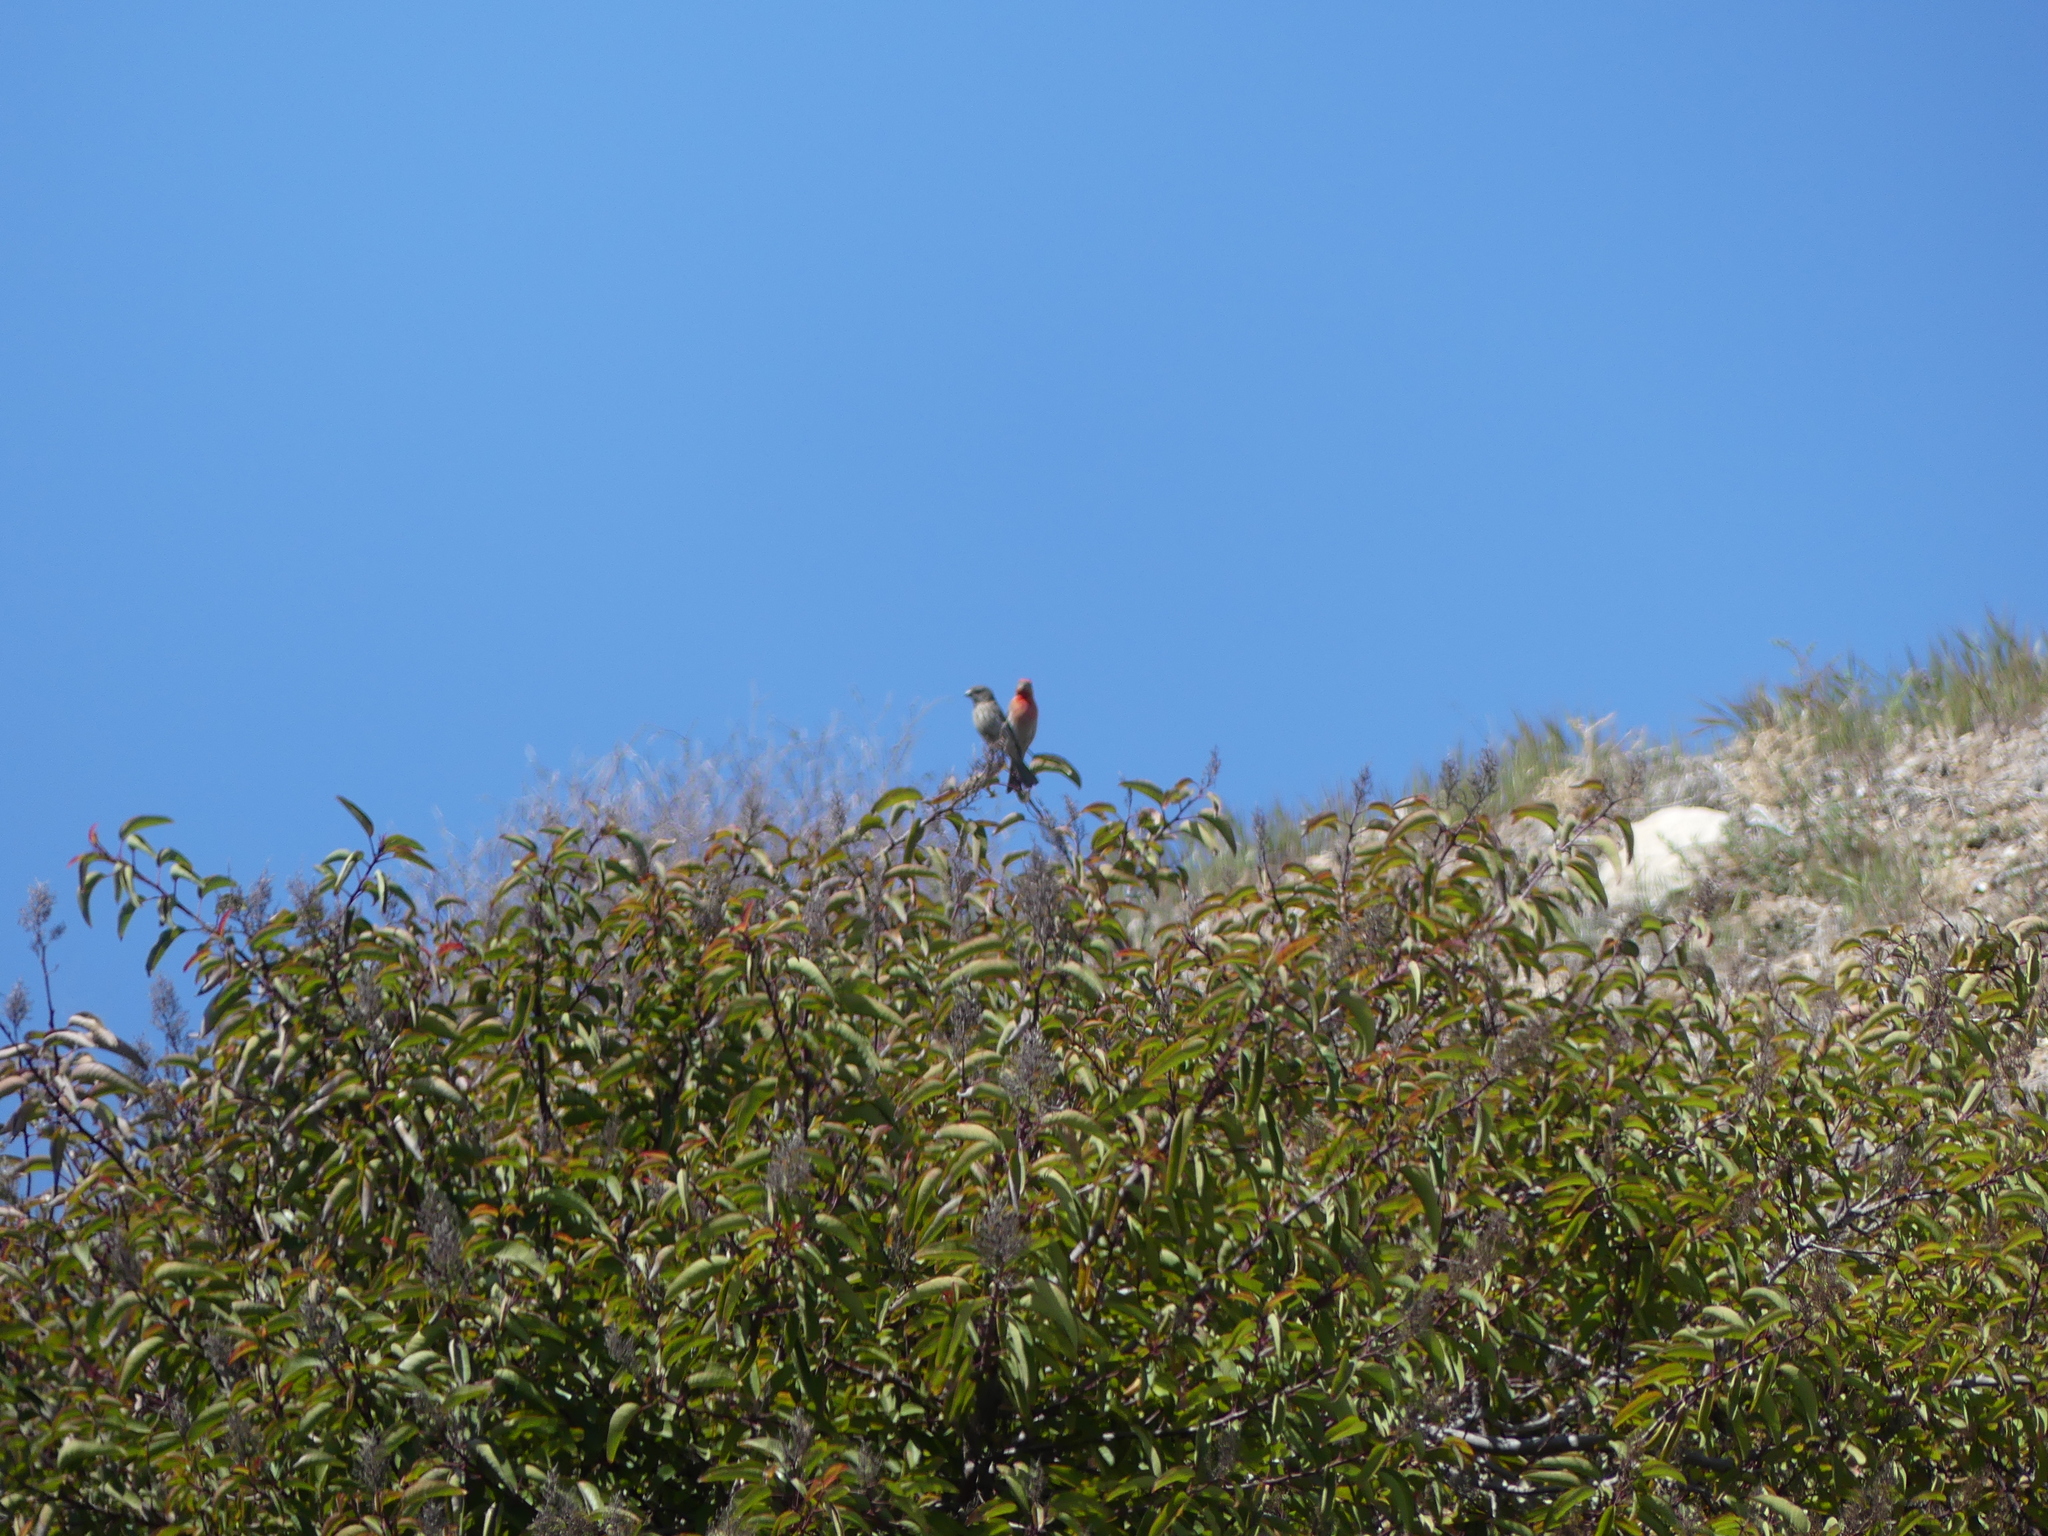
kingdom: Animalia
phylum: Chordata
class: Aves
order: Passeriformes
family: Fringillidae
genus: Haemorhous
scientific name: Haemorhous mexicanus
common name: House finch
